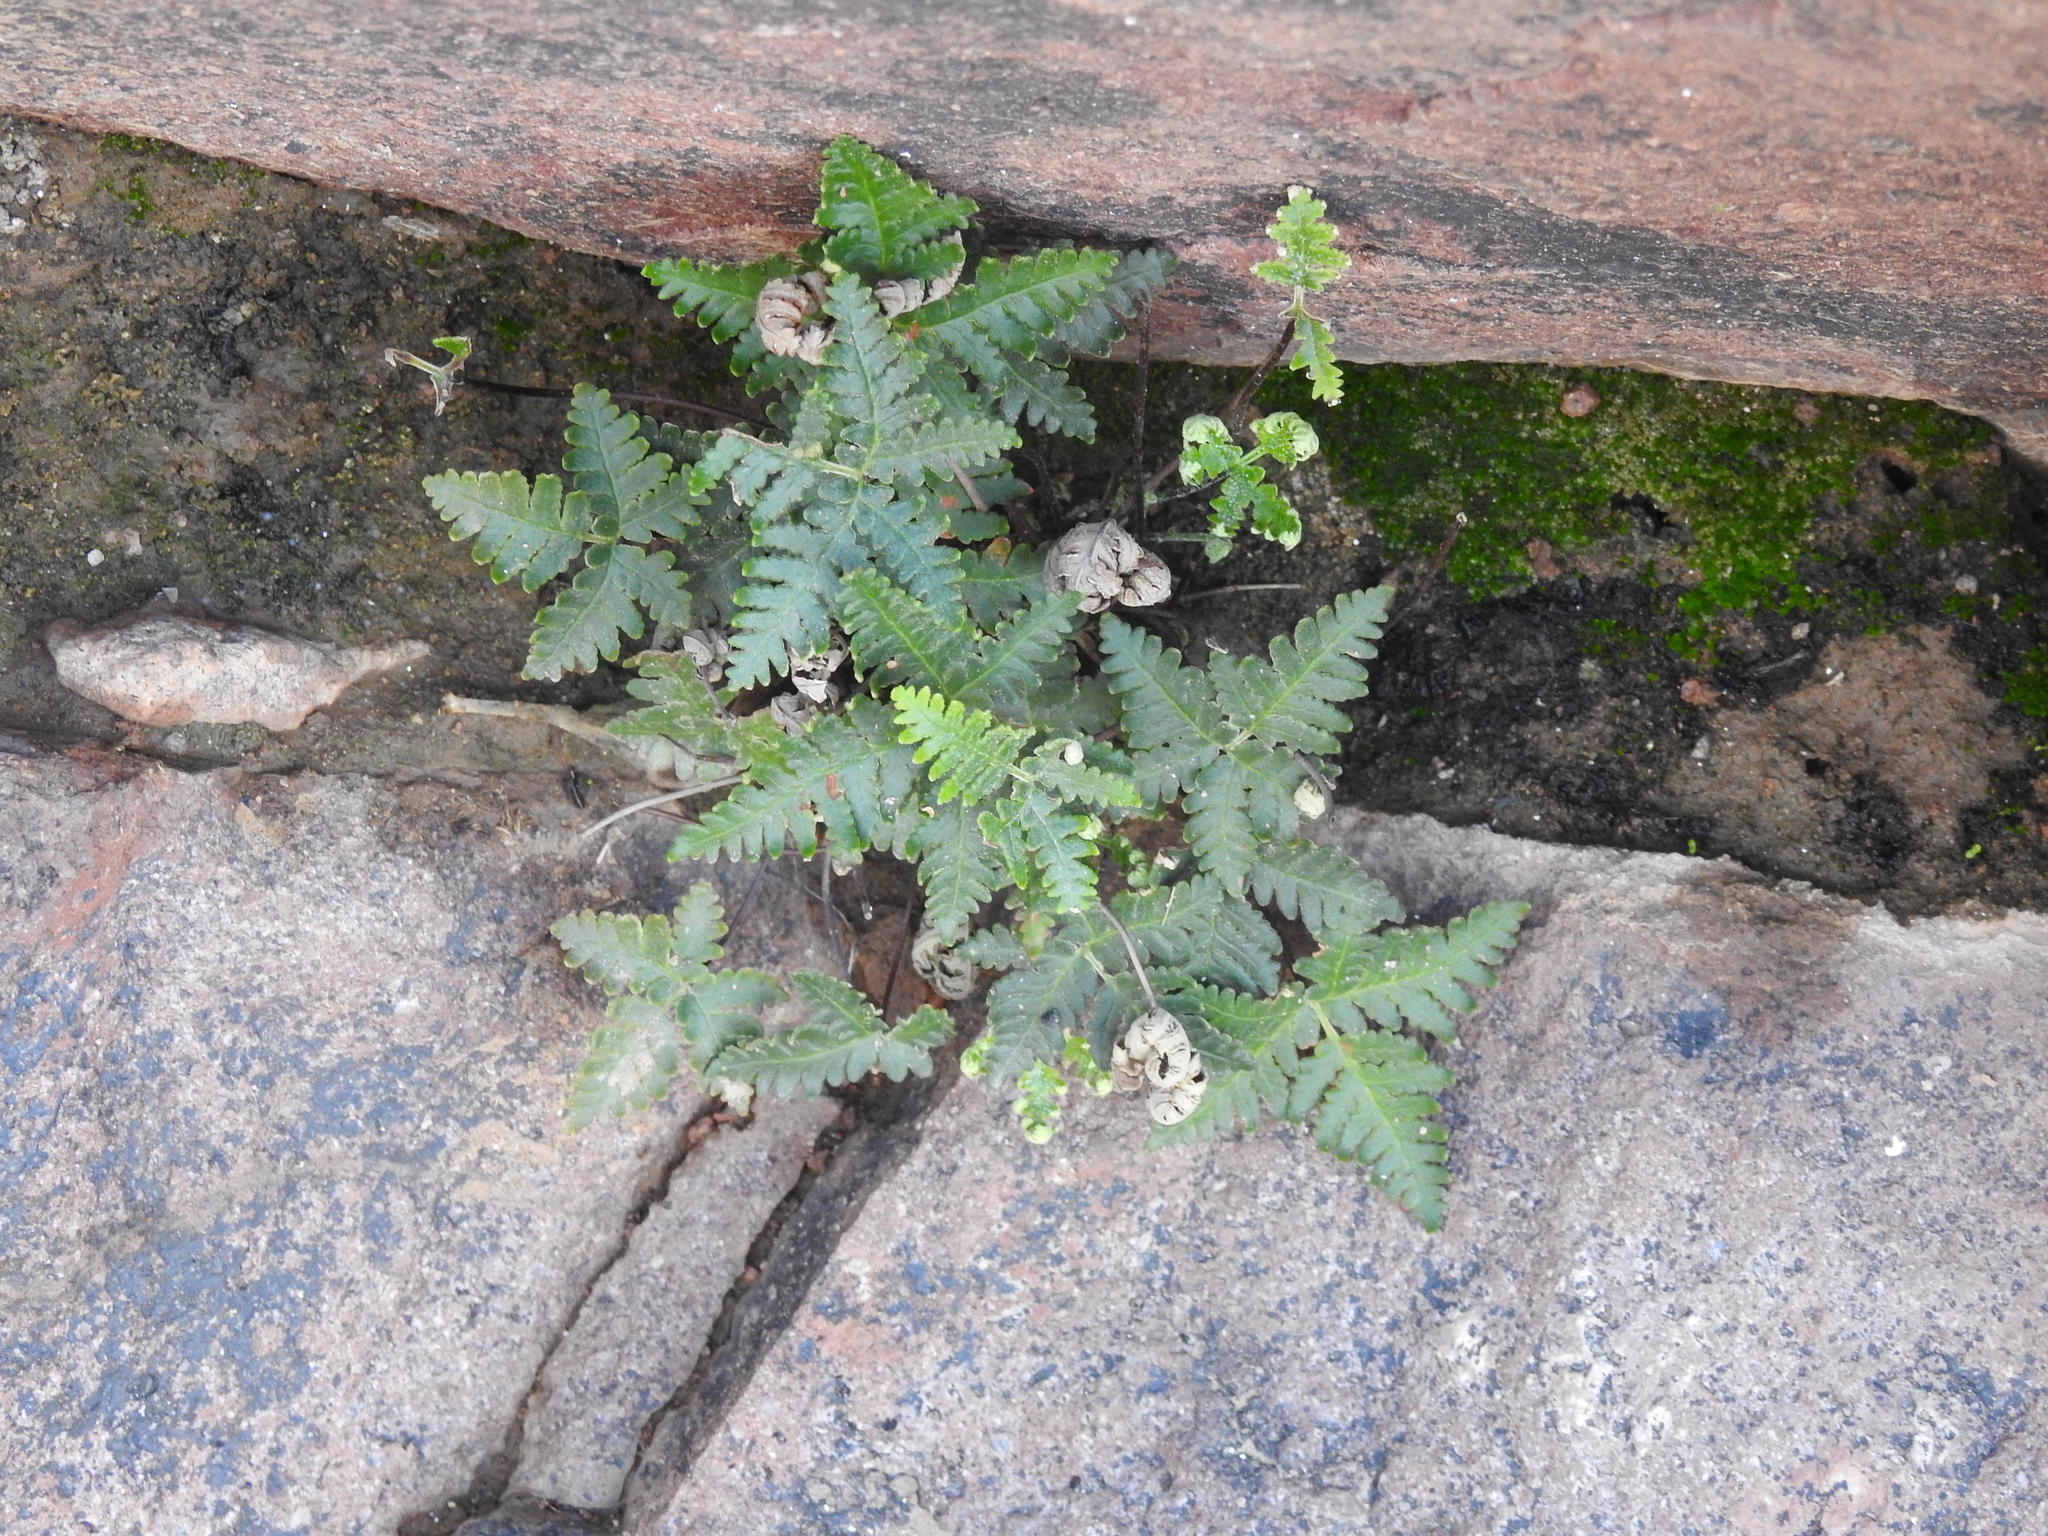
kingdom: Plantae
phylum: Tracheophyta
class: Polypodiopsida
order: Polypodiales
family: Pteridaceae
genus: Notholaena
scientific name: Notholaena standleyi
